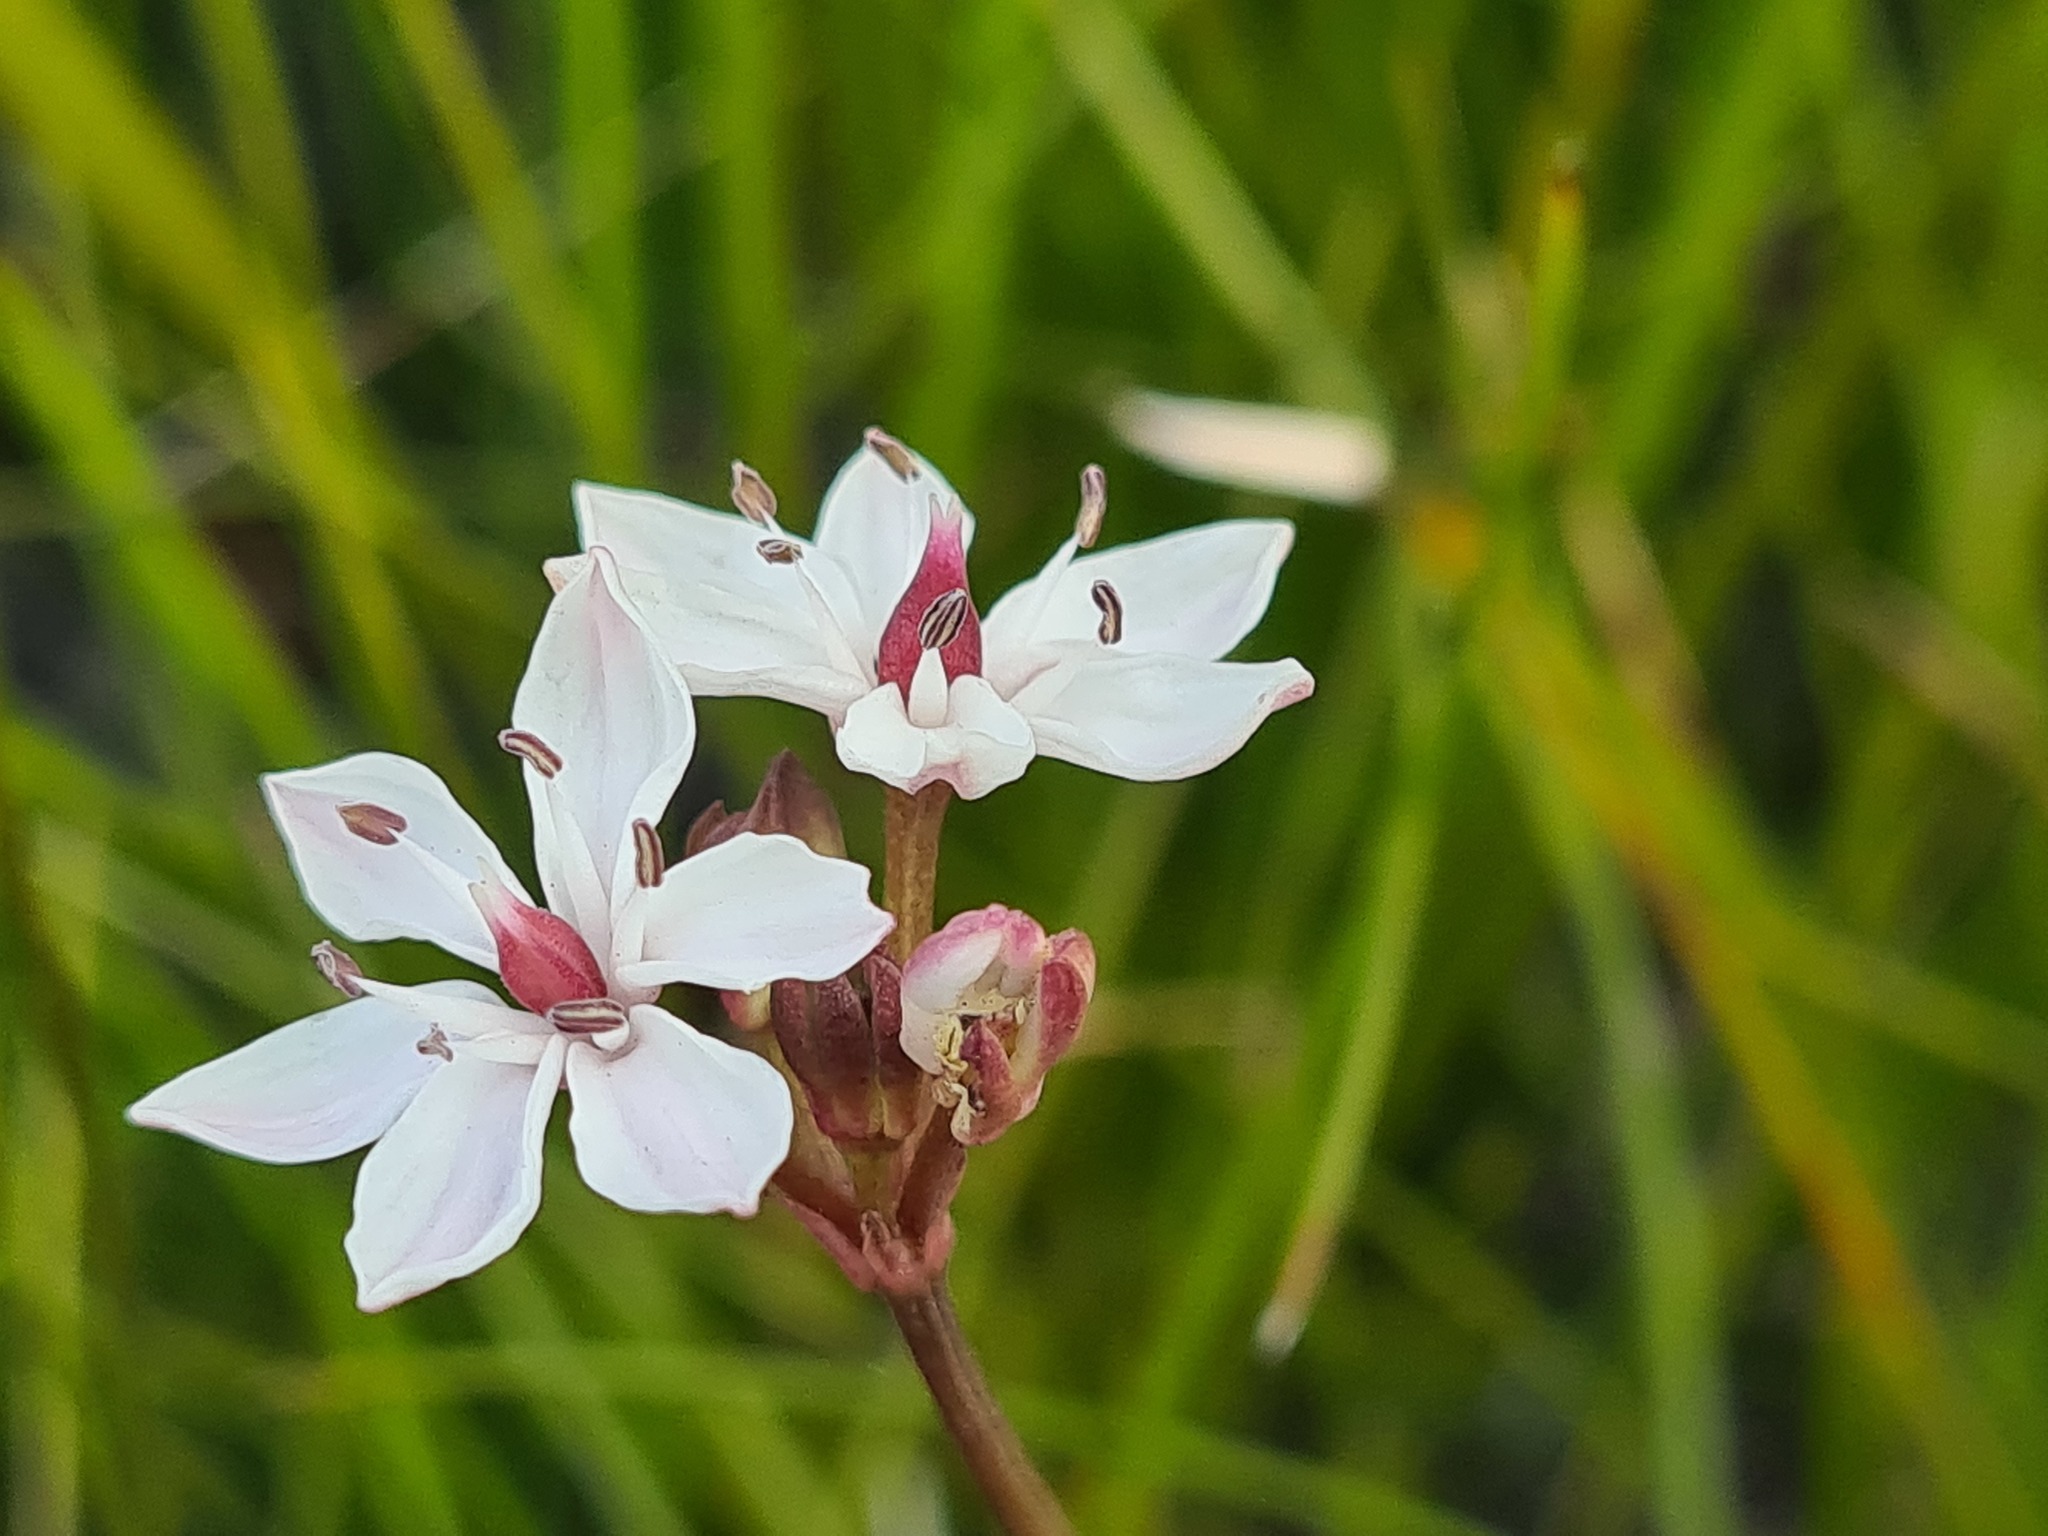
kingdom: Plantae
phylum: Tracheophyta
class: Liliopsida
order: Liliales
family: Colchicaceae
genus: Burchardia
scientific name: Burchardia umbellata
